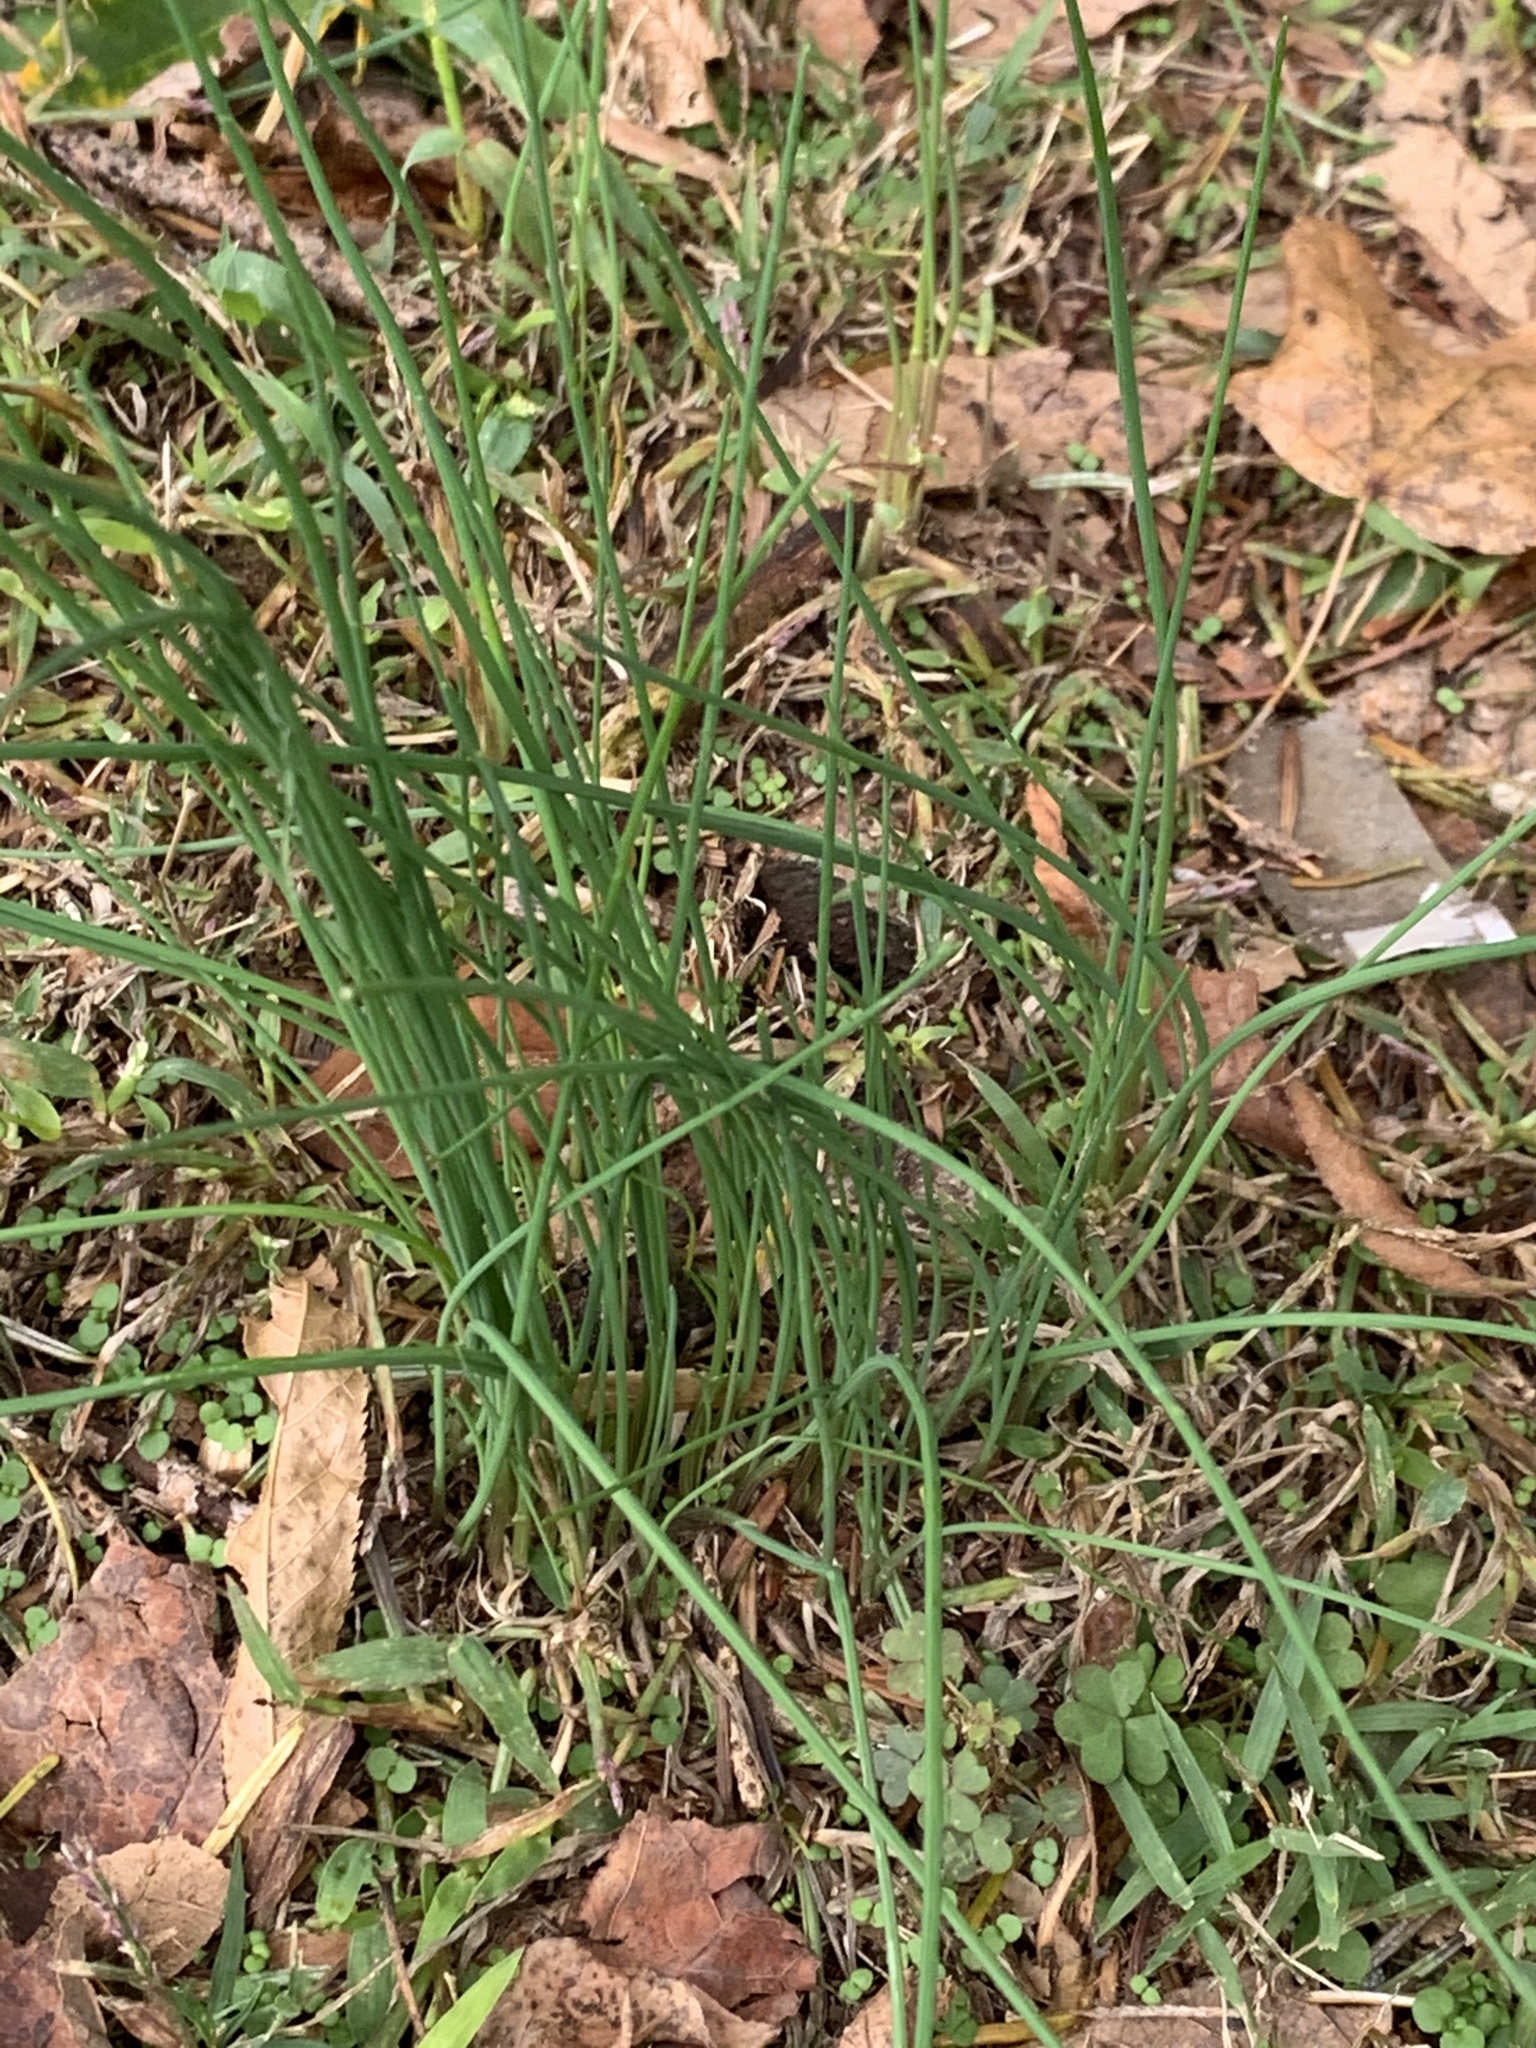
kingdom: Plantae
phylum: Tracheophyta
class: Liliopsida
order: Asparagales
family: Amaryllidaceae
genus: Allium
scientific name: Allium vineale
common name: Crow garlic
